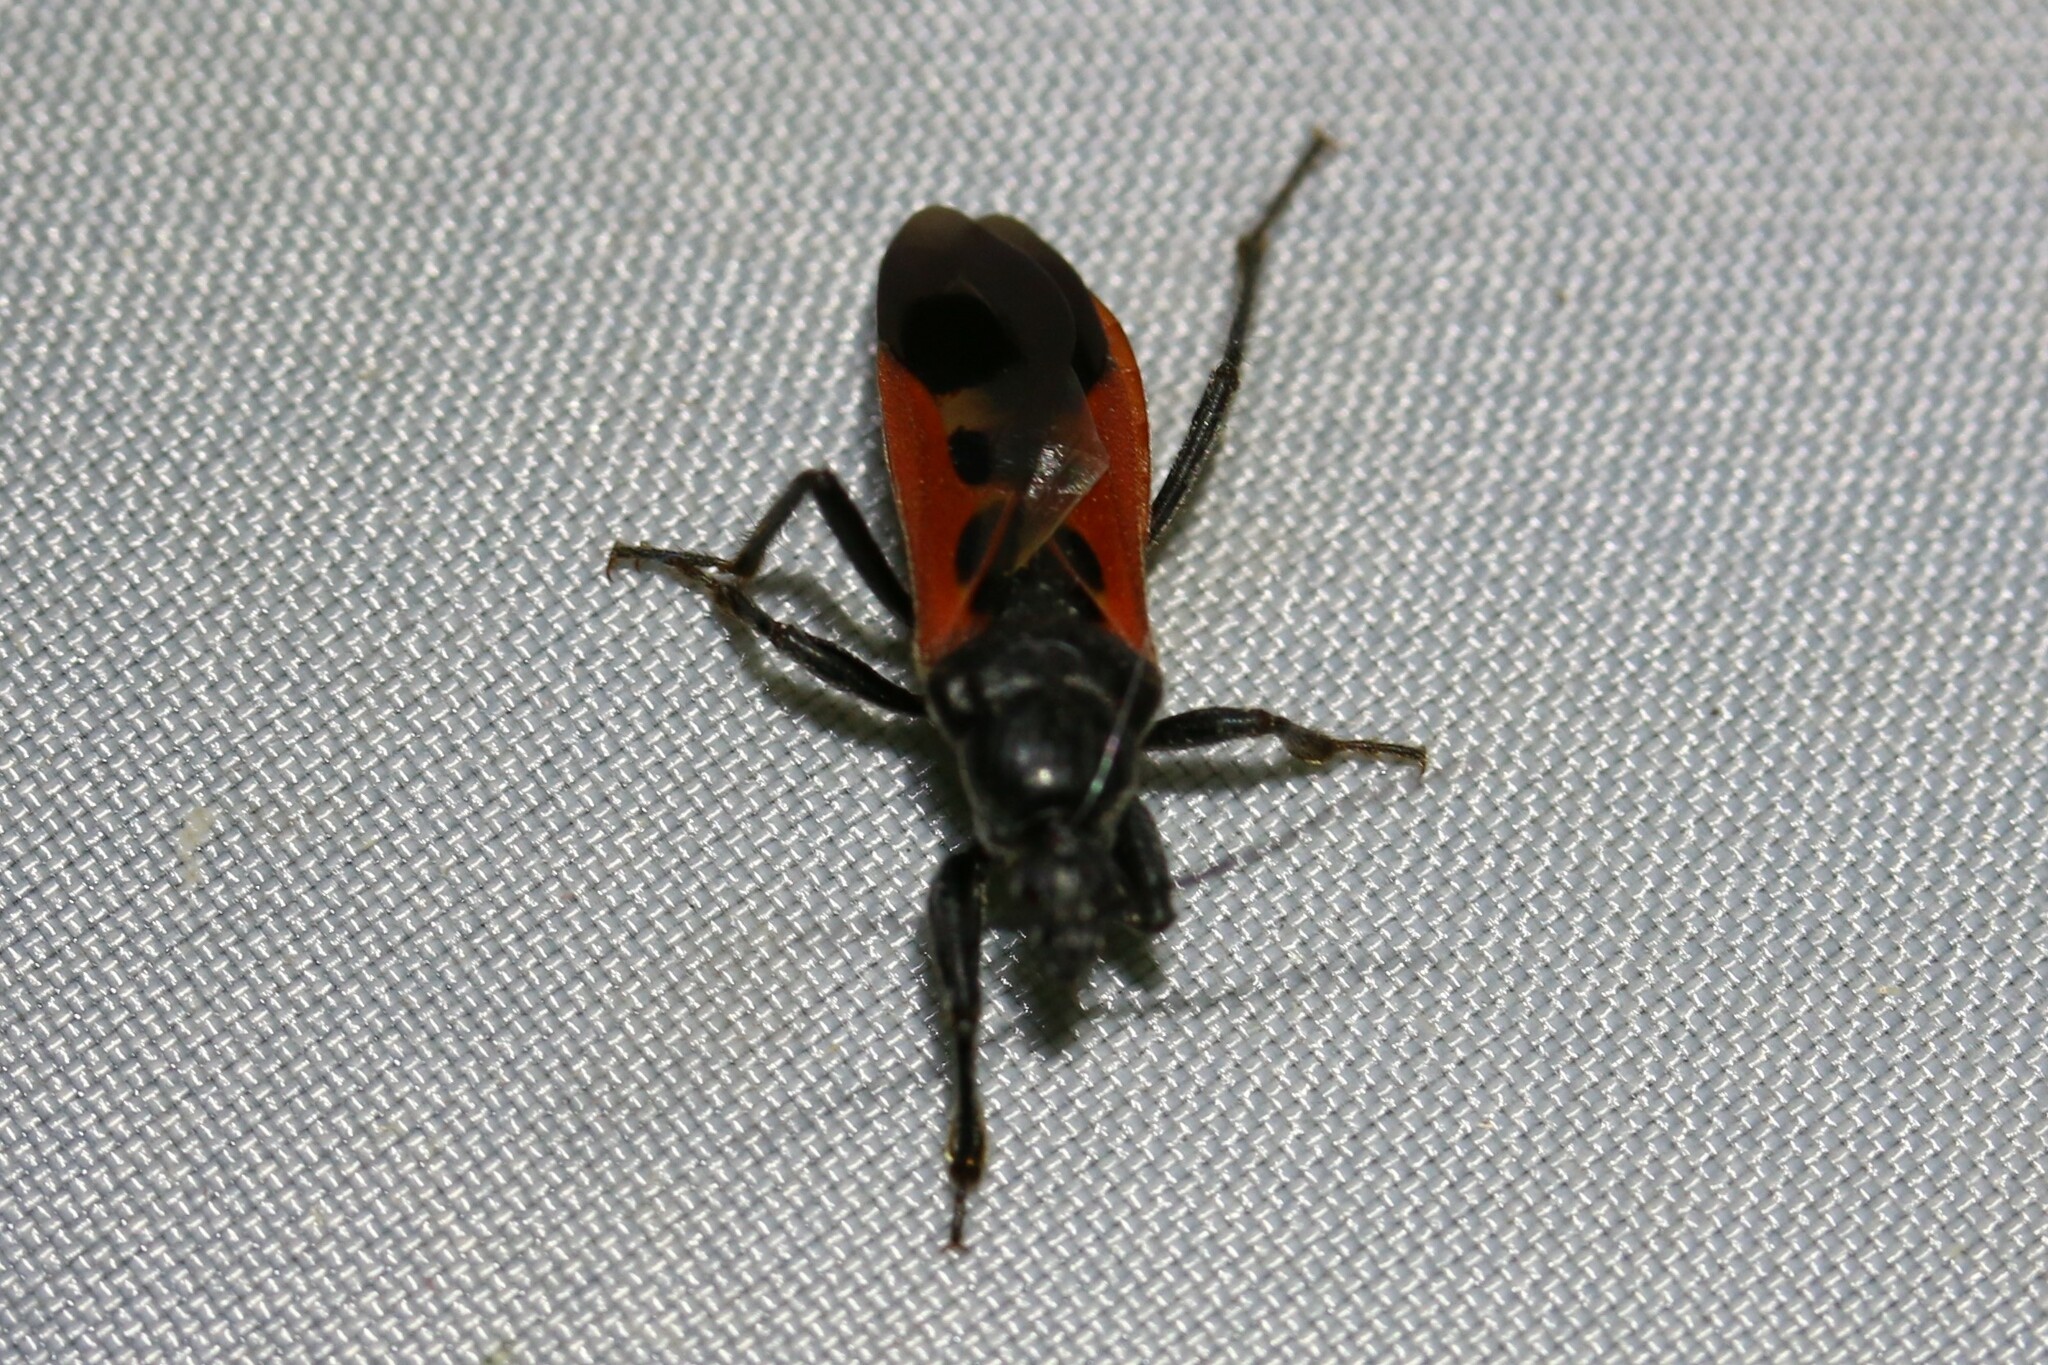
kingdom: Animalia
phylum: Arthropoda
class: Insecta
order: Hemiptera
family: Reduviidae
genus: Peirates
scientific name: Peirates hybridus
